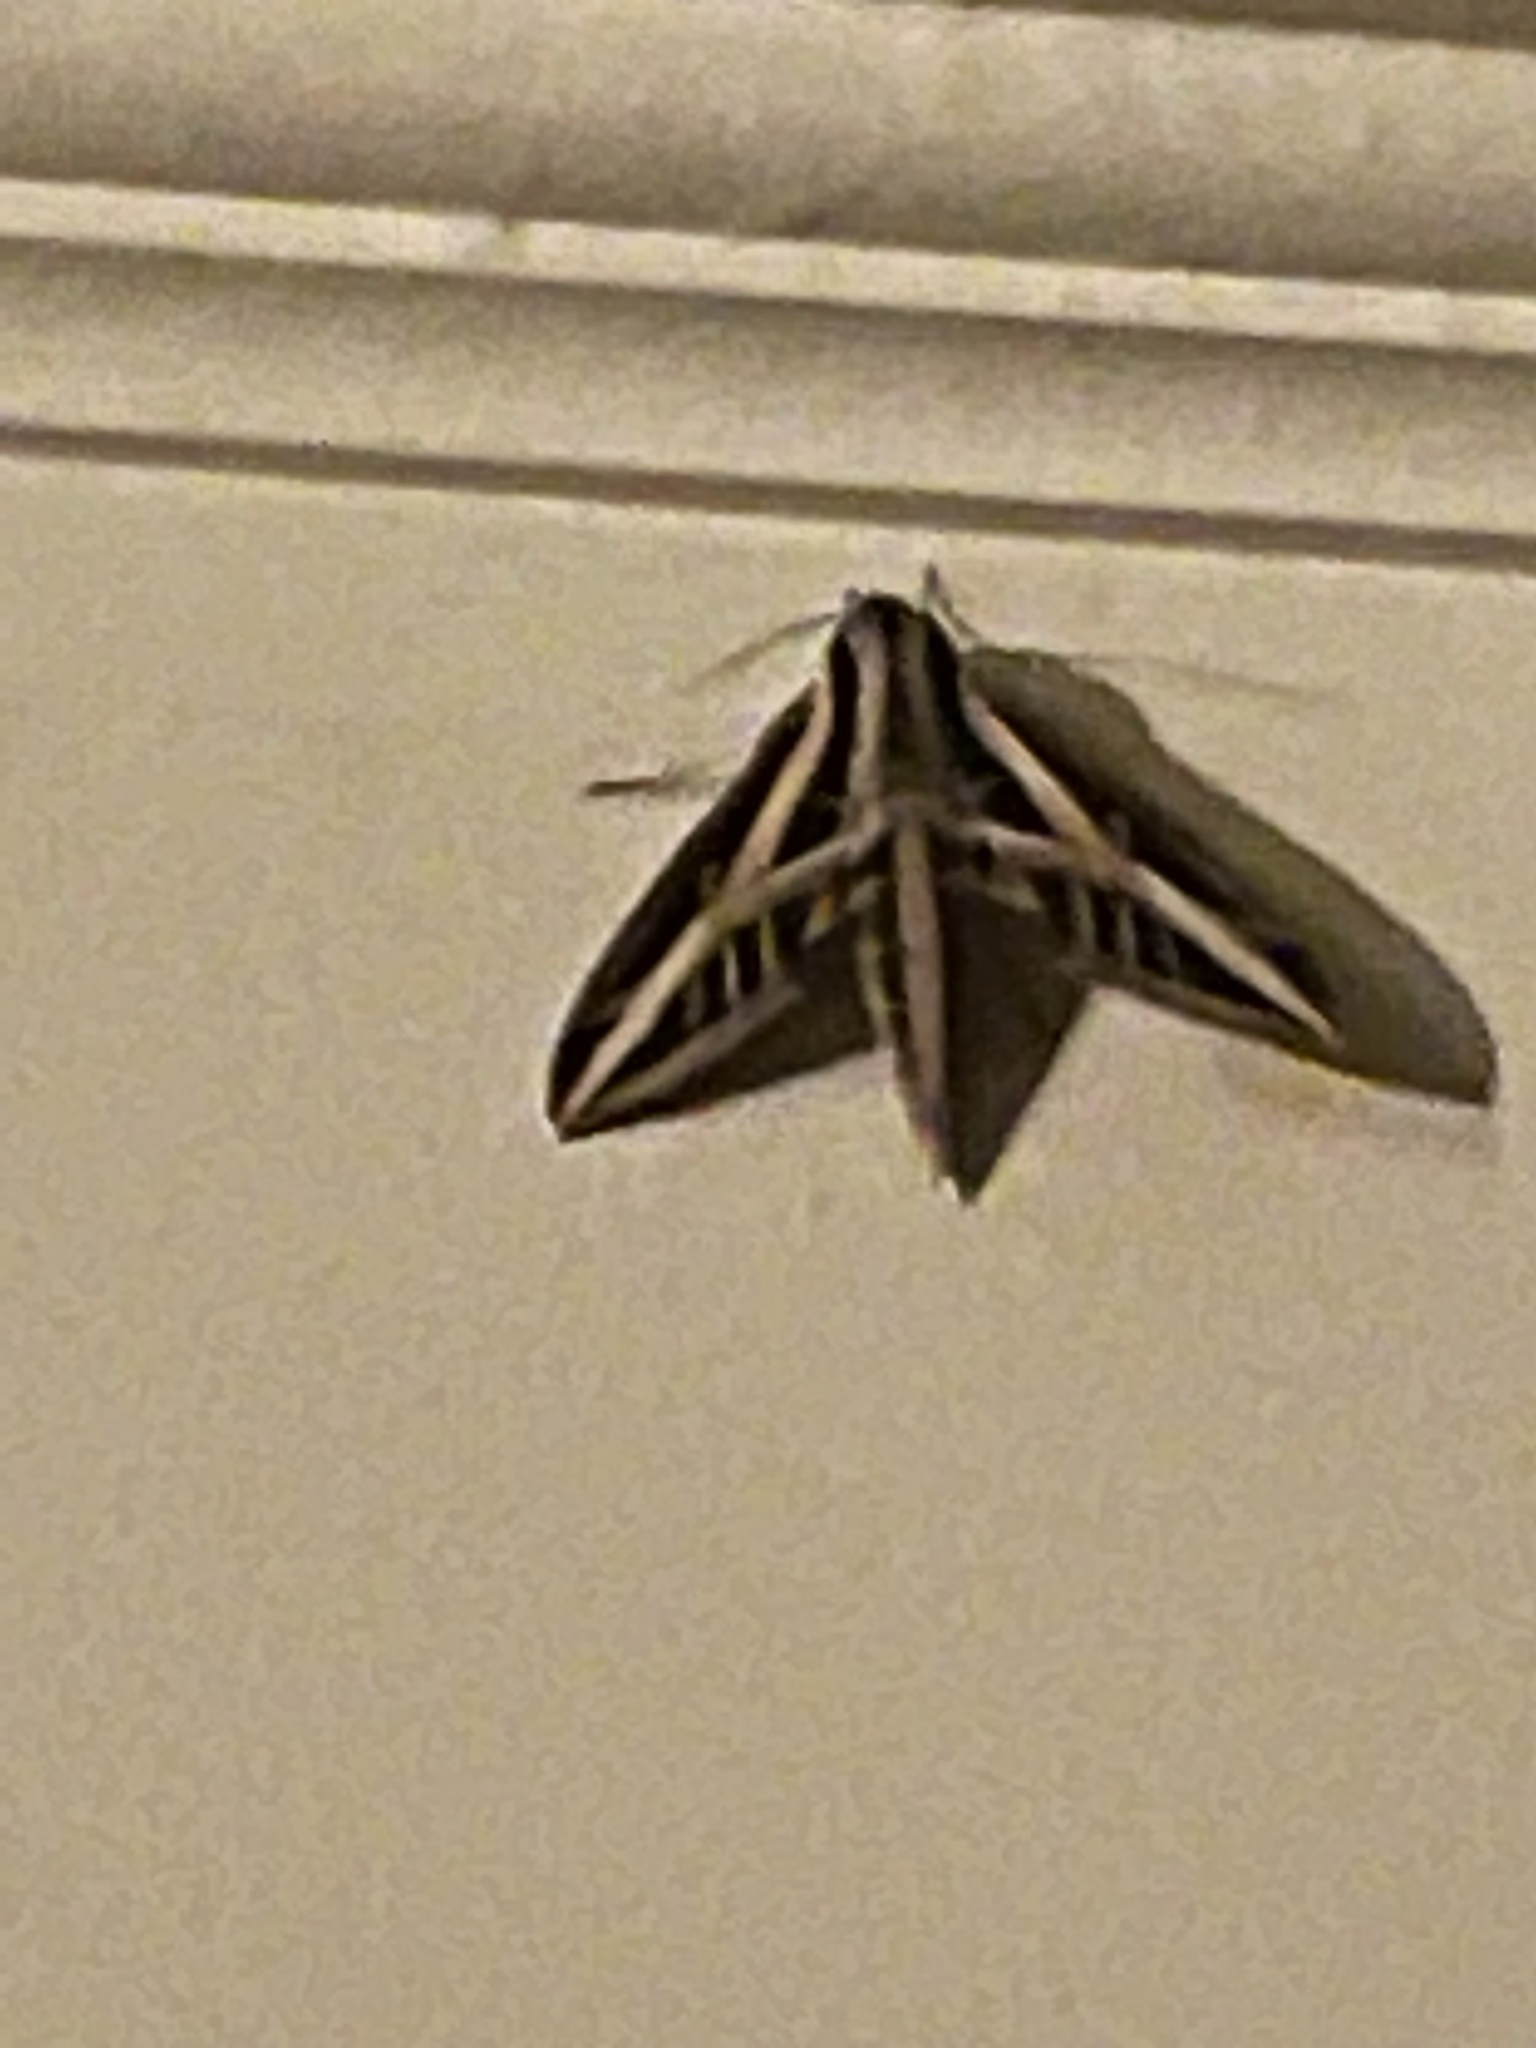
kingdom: Animalia
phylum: Arthropoda
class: Insecta
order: Lepidoptera
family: Sphingidae
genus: Eumorpha
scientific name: Eumorpha fasciatus
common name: Banded sphinx
